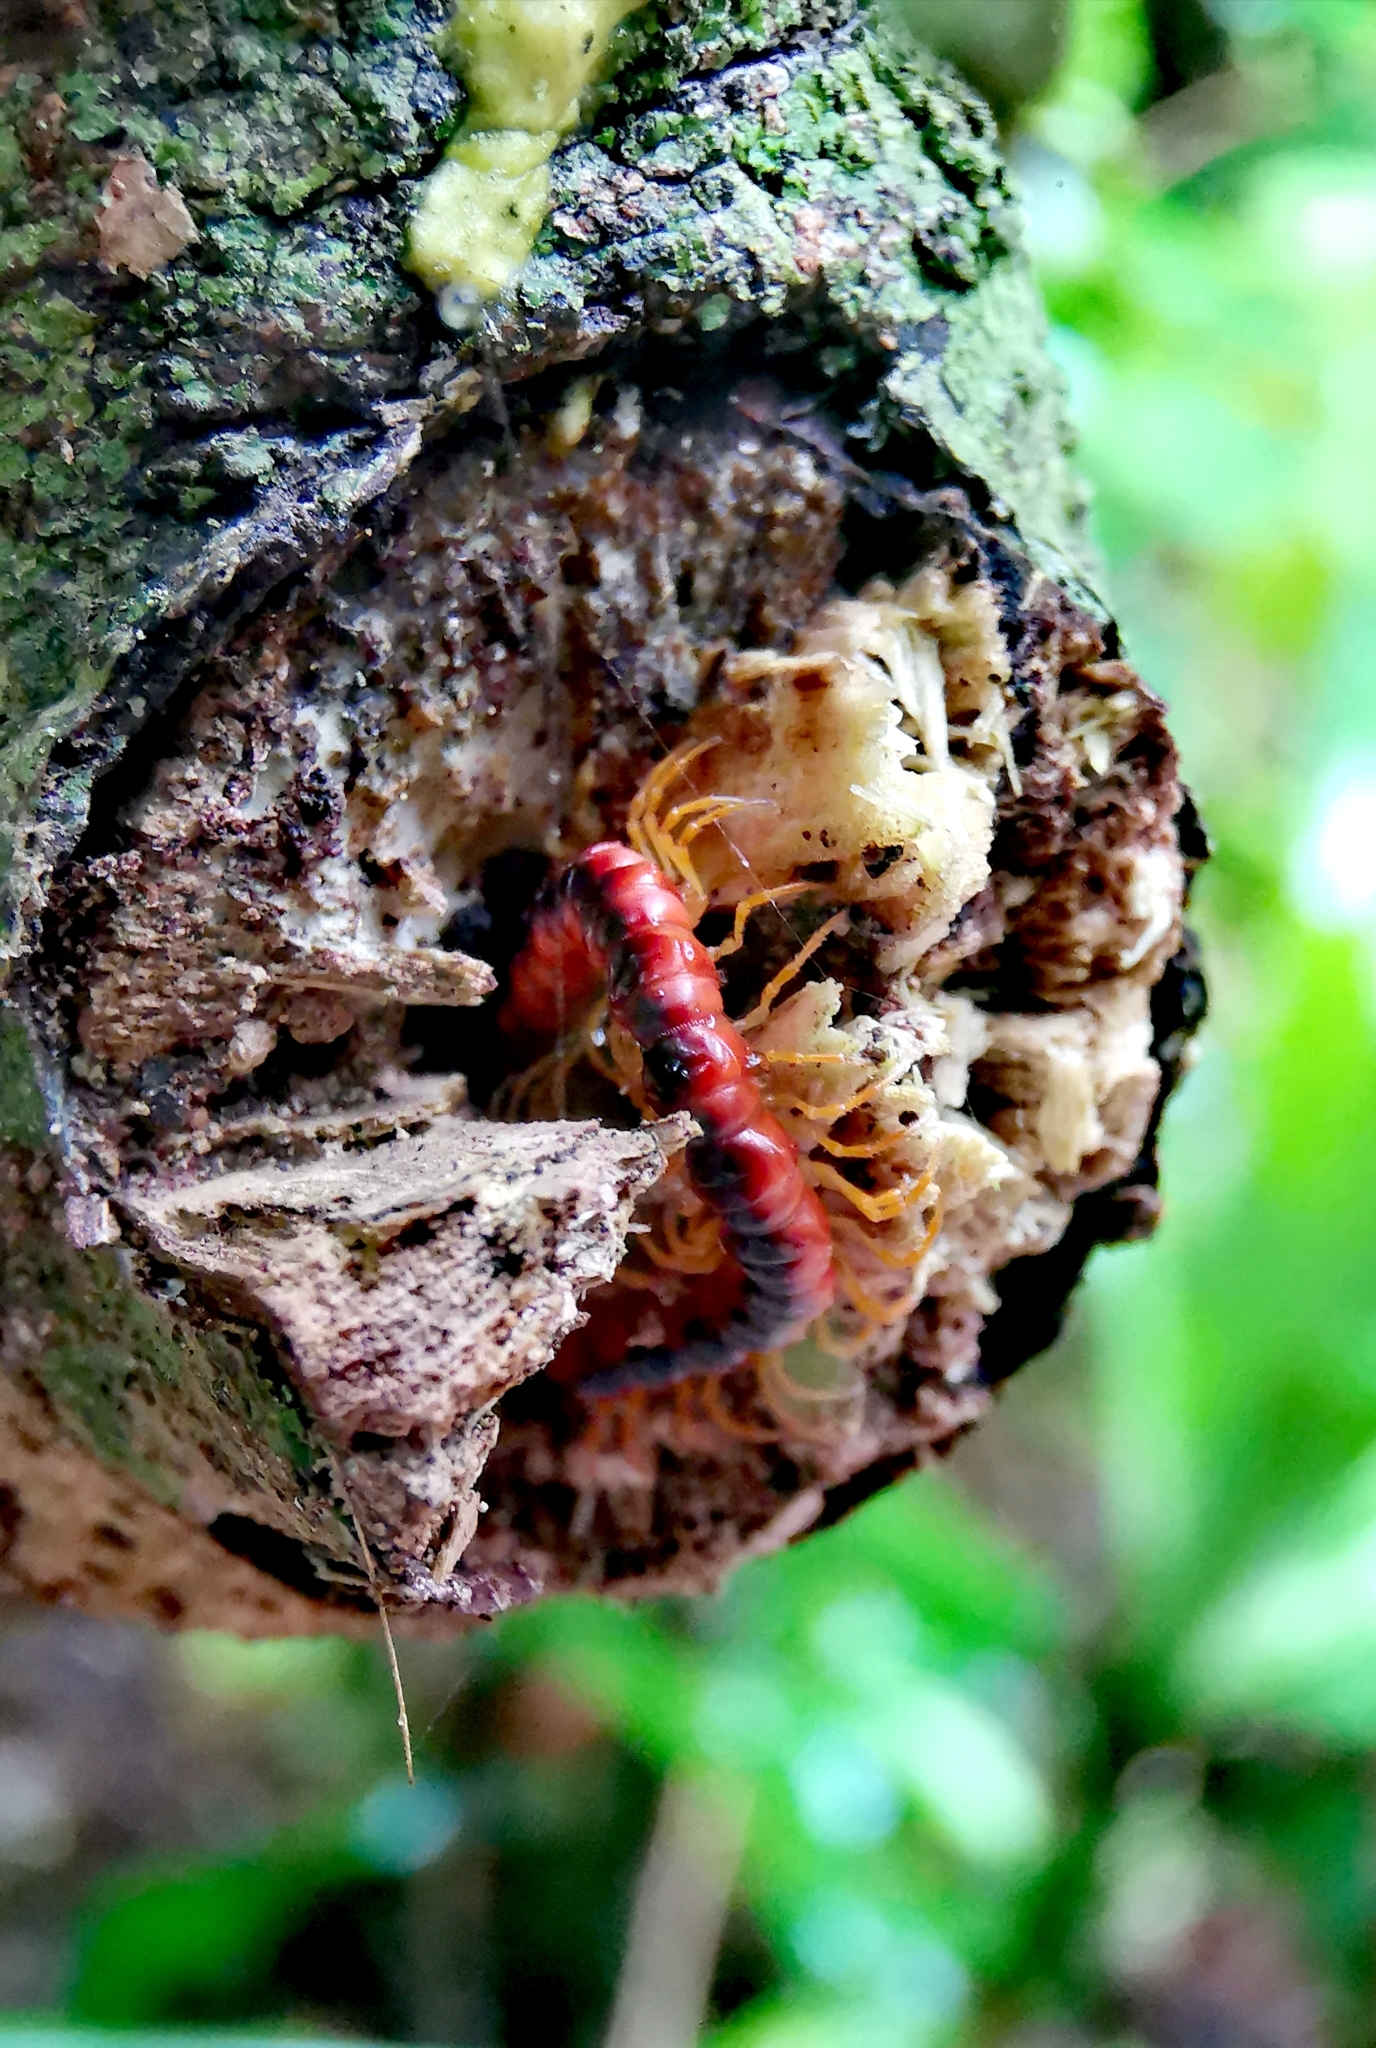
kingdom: Animalia
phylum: Arthropoda
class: Diplopoda
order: Polydesmida
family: Paradoxosomatidae
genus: Opisthodolichopus
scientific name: Opisthodolichopus scandens
